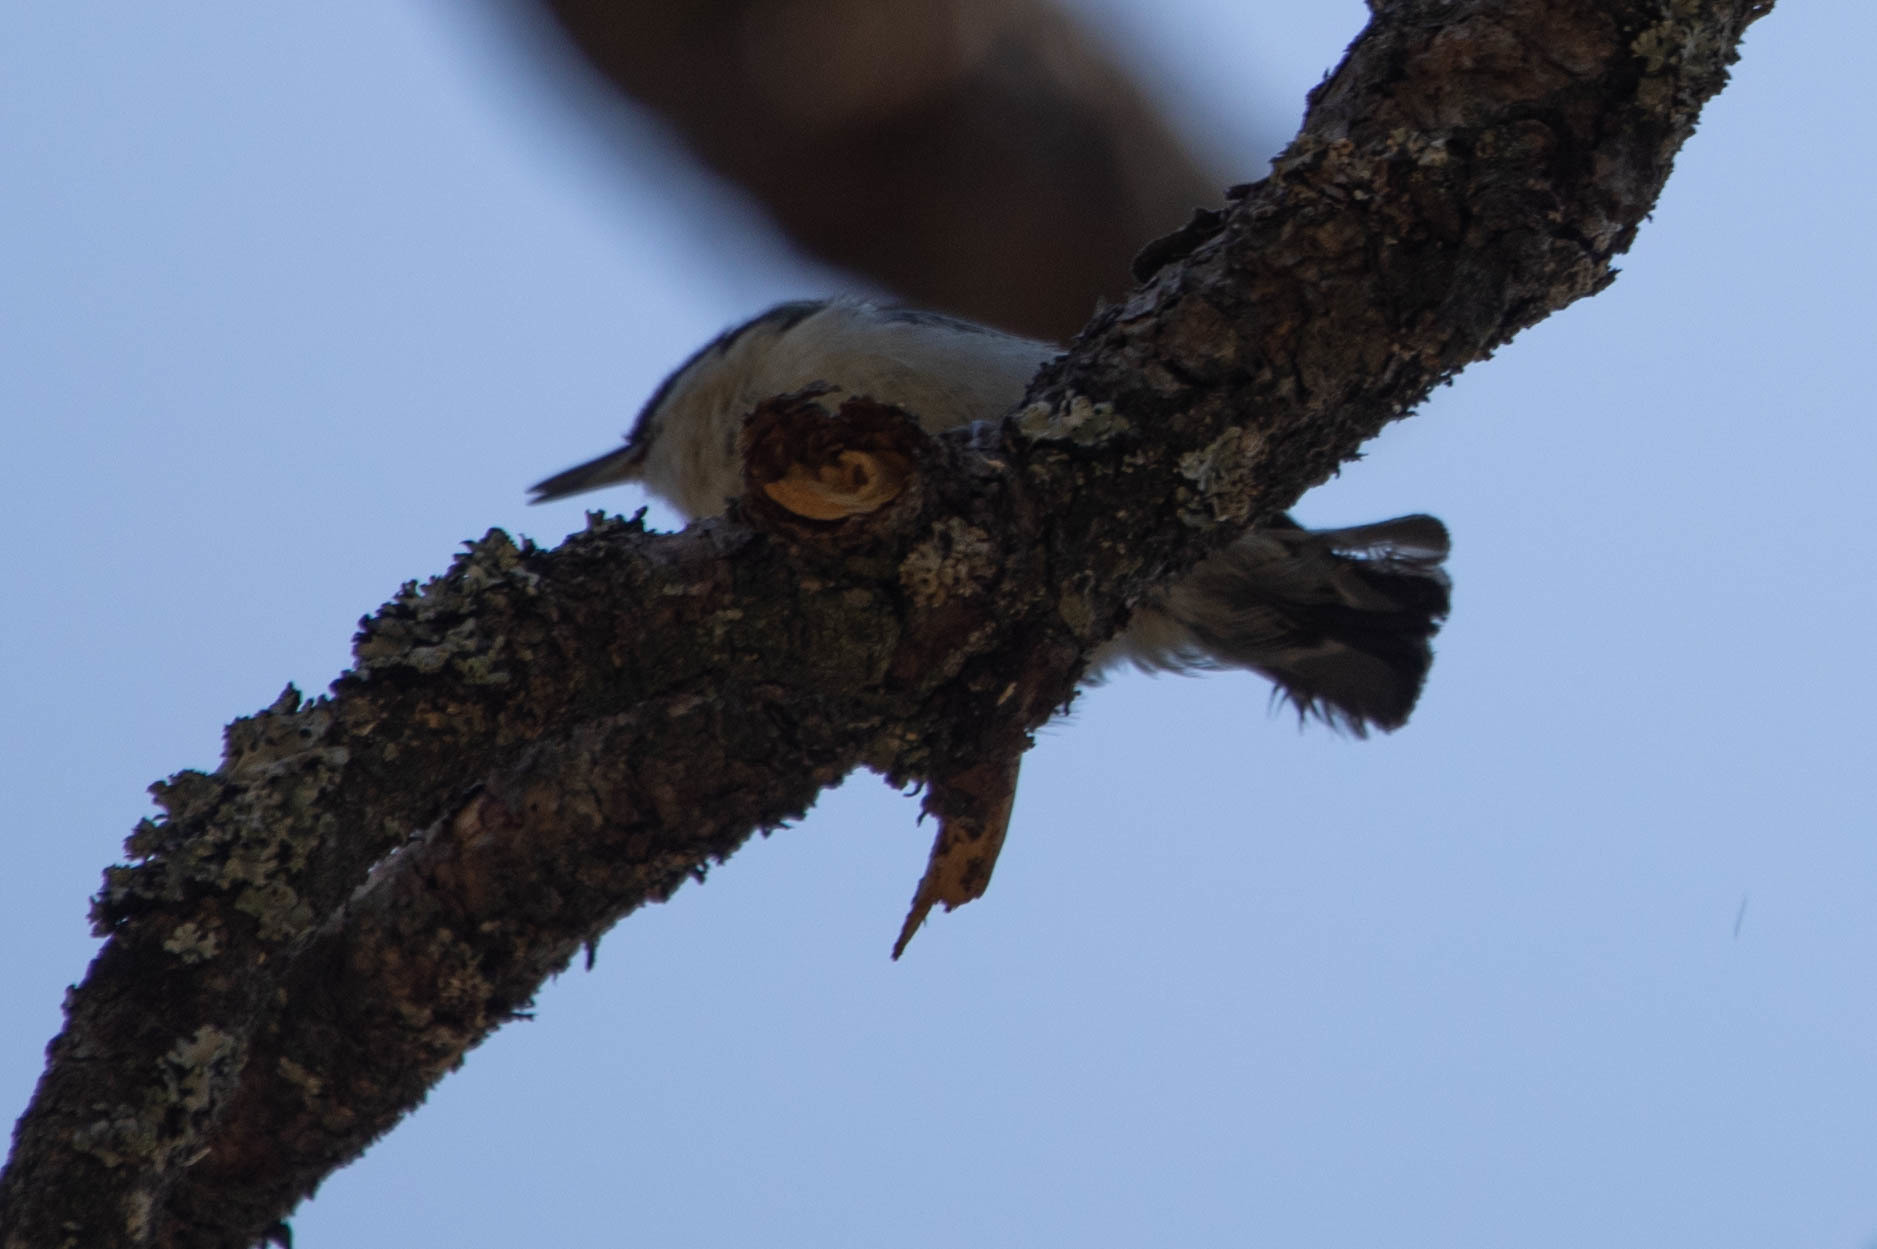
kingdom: Animalia
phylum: Chordata
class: Aves
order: Passeriformes
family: Sittidae
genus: Sitta
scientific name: Sitta carolinensis
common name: White-breasted nuthatch
